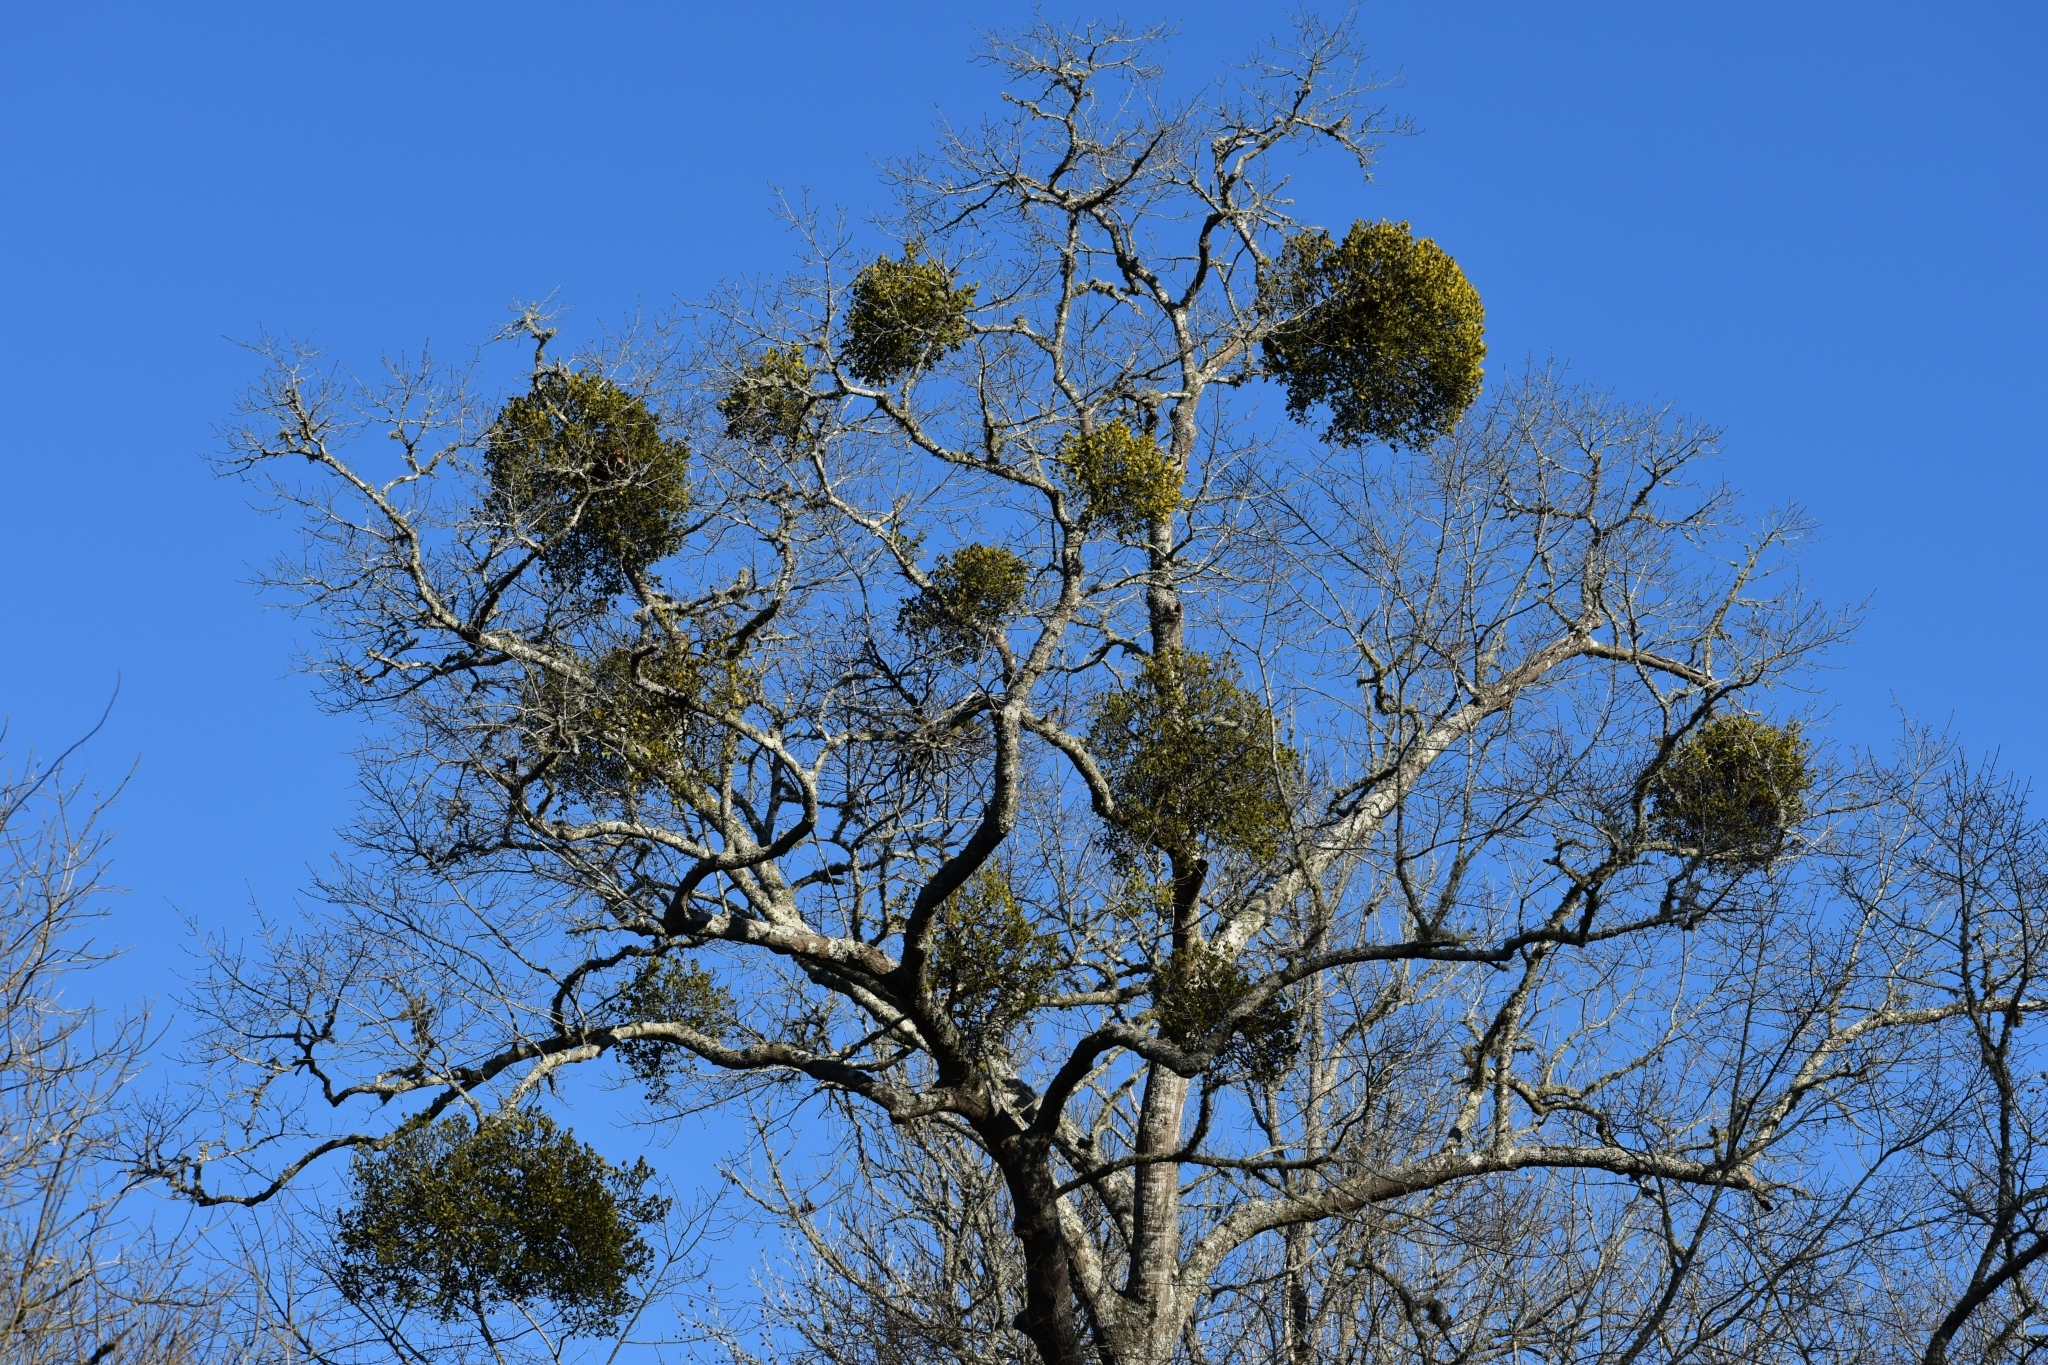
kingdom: Plantae
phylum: Tracheophyta
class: Magnoliopsida
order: Santalales
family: Viscaceae
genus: Phoradendron
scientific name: Phoradendron leucarpum
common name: Pacific mistletoe
